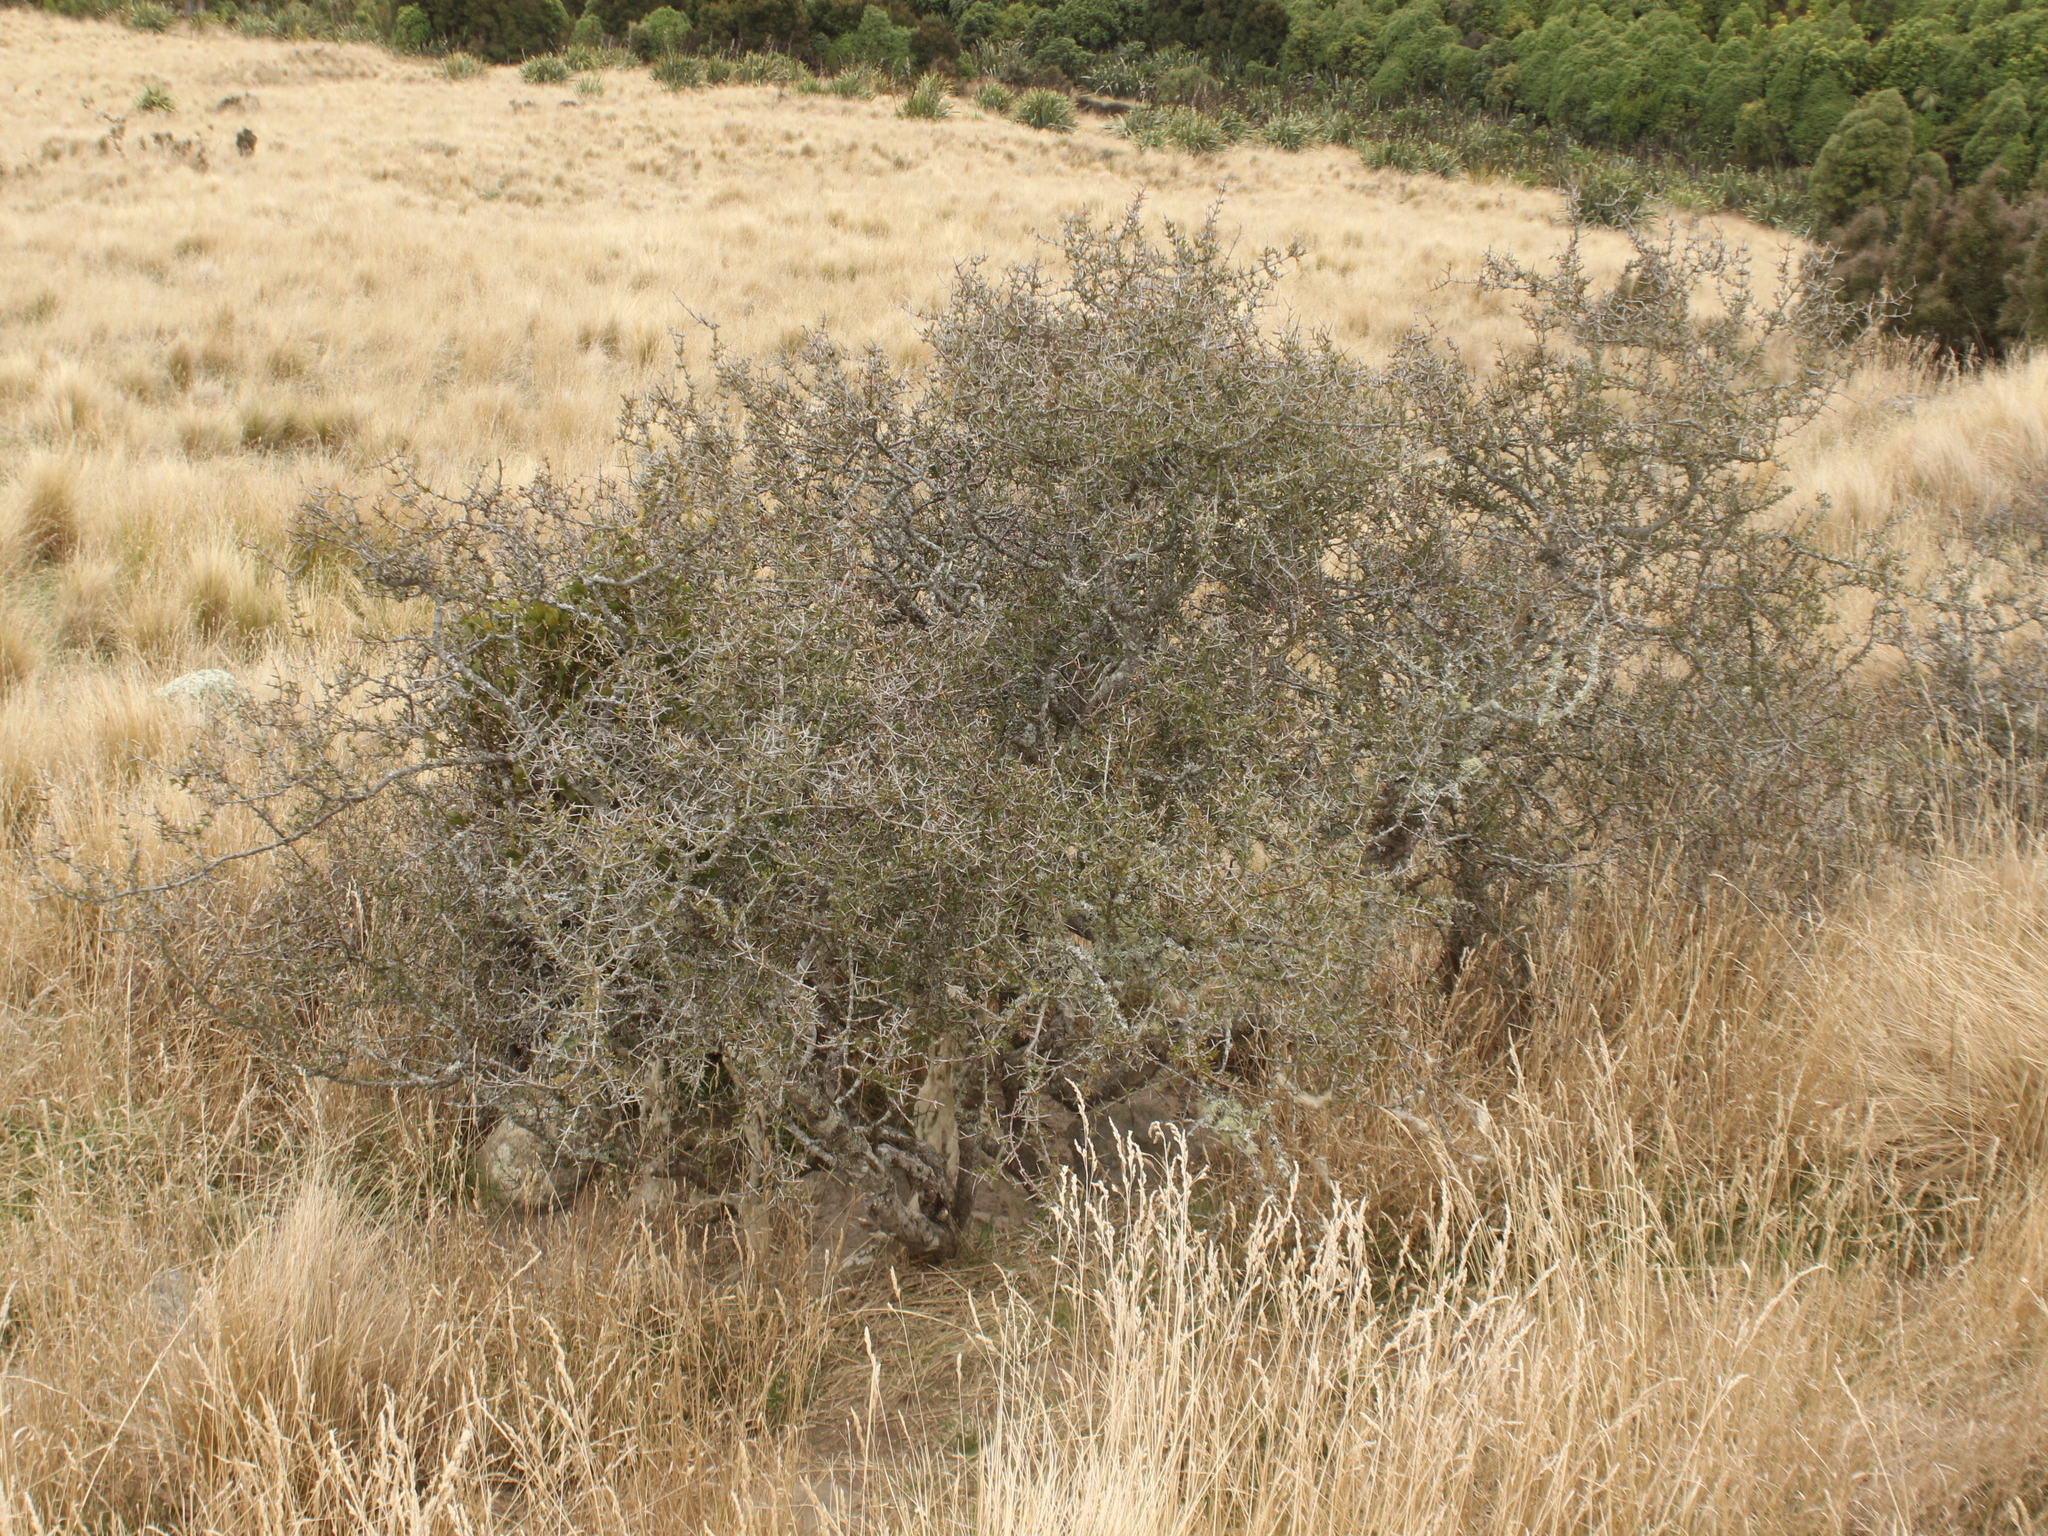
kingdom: Plantae
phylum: Tracheophyta
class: Magnoliopsida
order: Rosales
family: Rhamnaceae
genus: Discaria
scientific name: Discaria toumatou
